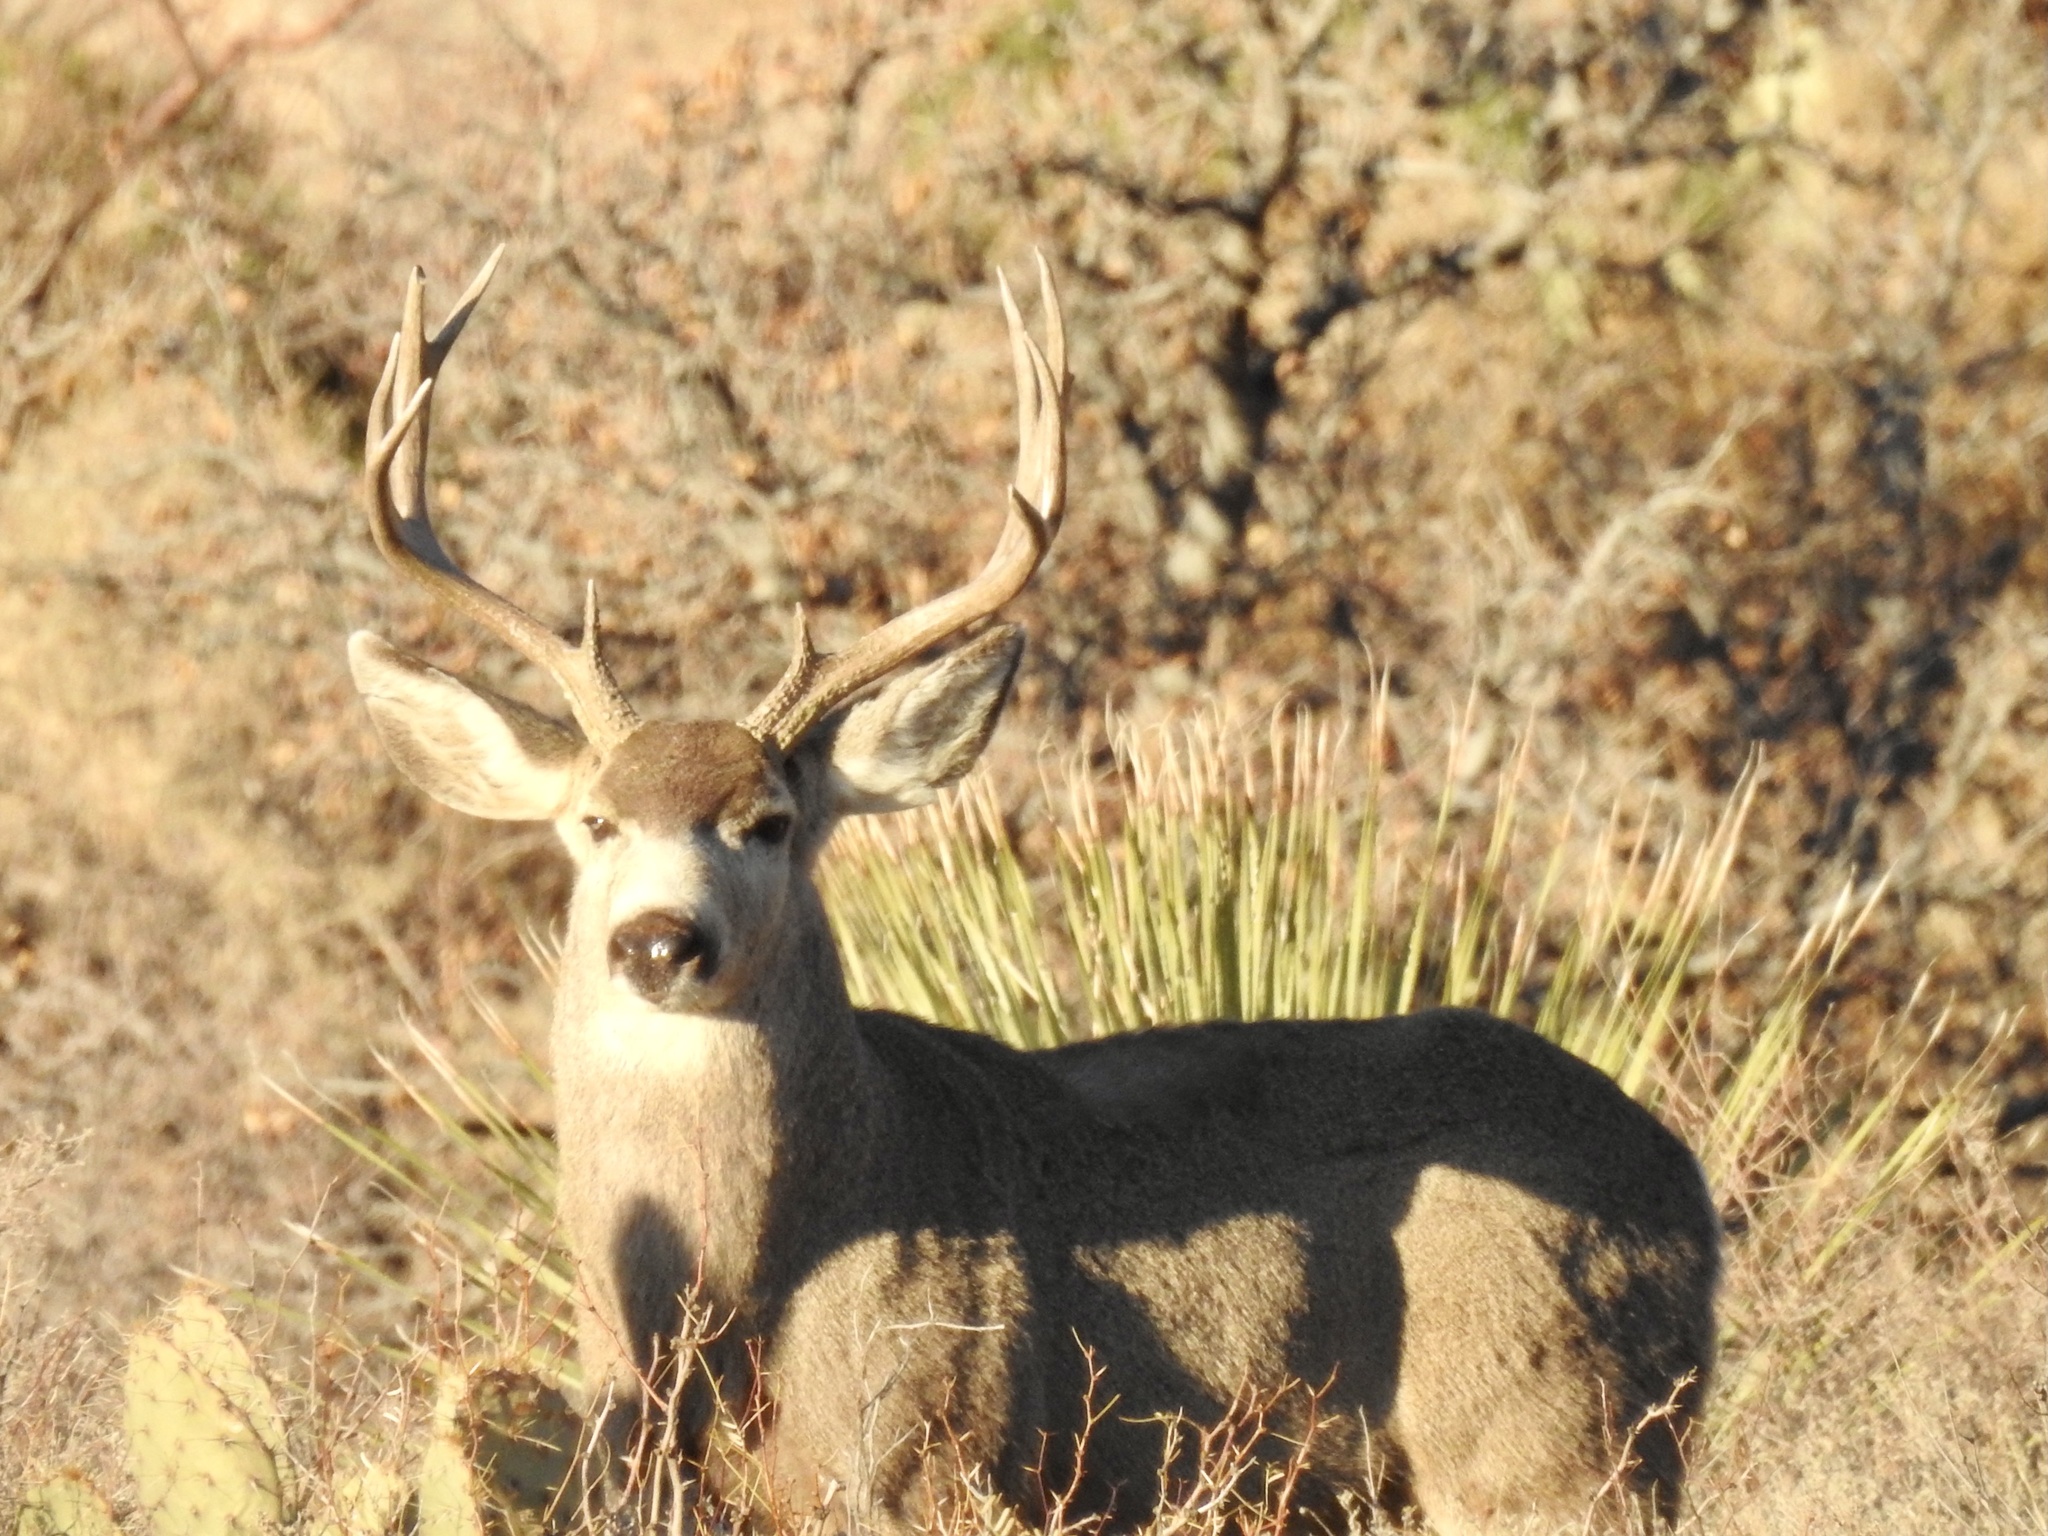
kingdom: Animalia
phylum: Chordata
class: Mammalia
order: Artiodactyla
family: Cervidae
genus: Odocoileus
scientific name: Odocoileus hemionus
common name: Mule deer
